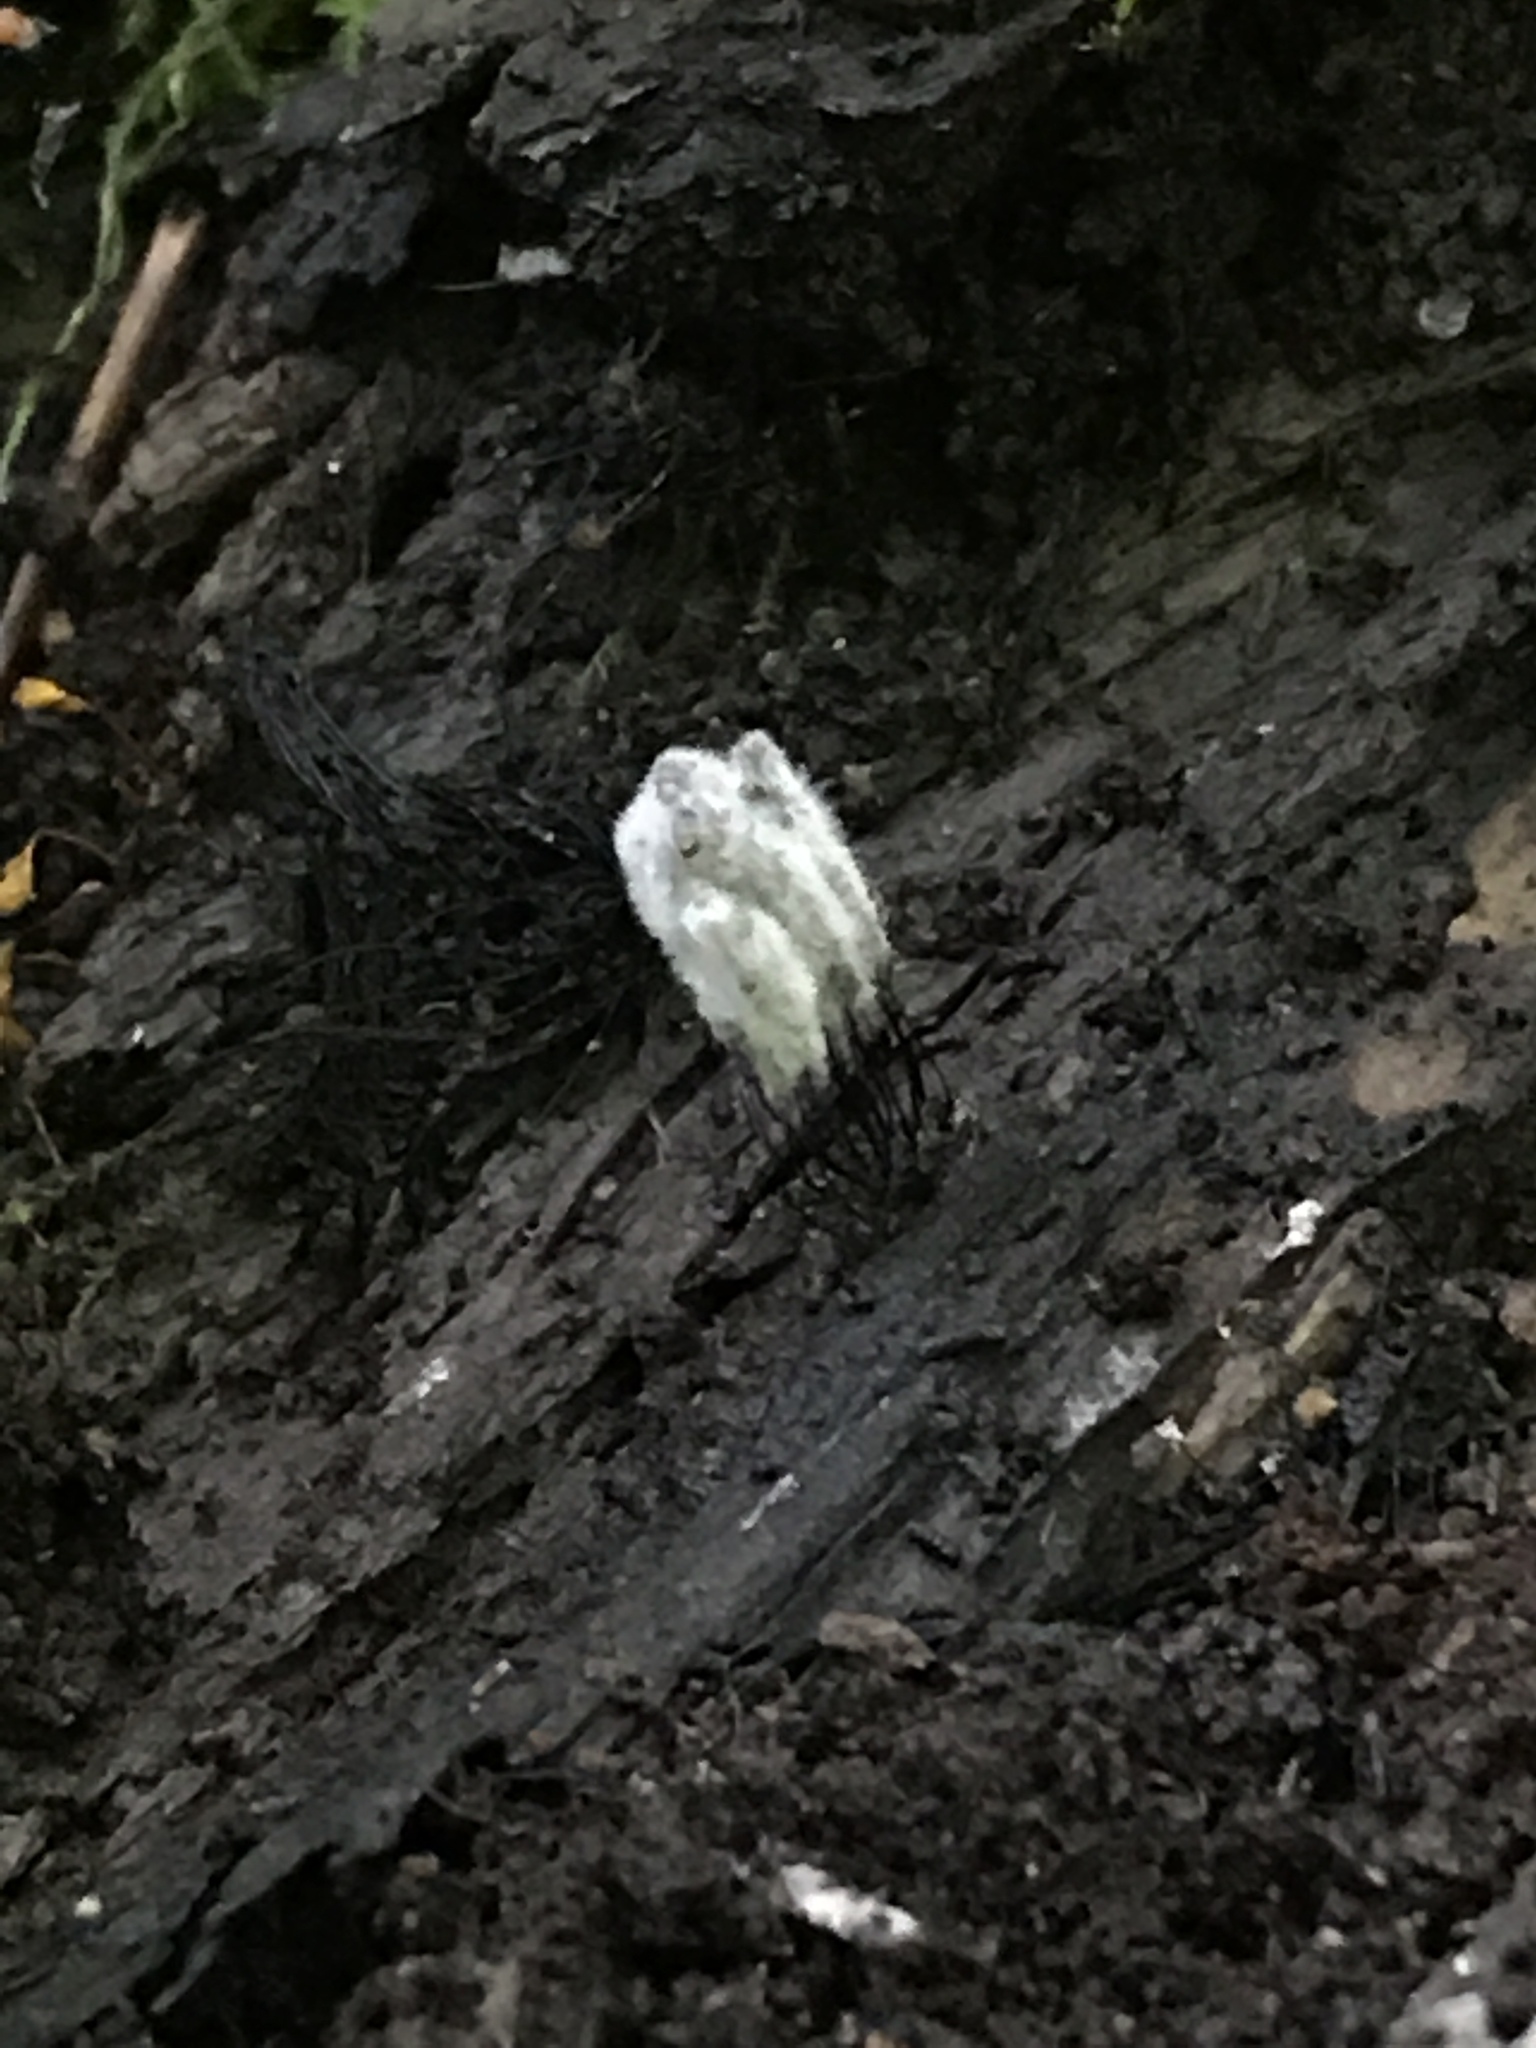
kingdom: Fungi
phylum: Ascomycota
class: Sordariomycetes
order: Hypocreales
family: Bionectriaceae
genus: Nectriopsis
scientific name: Nectriopsis rexiana
